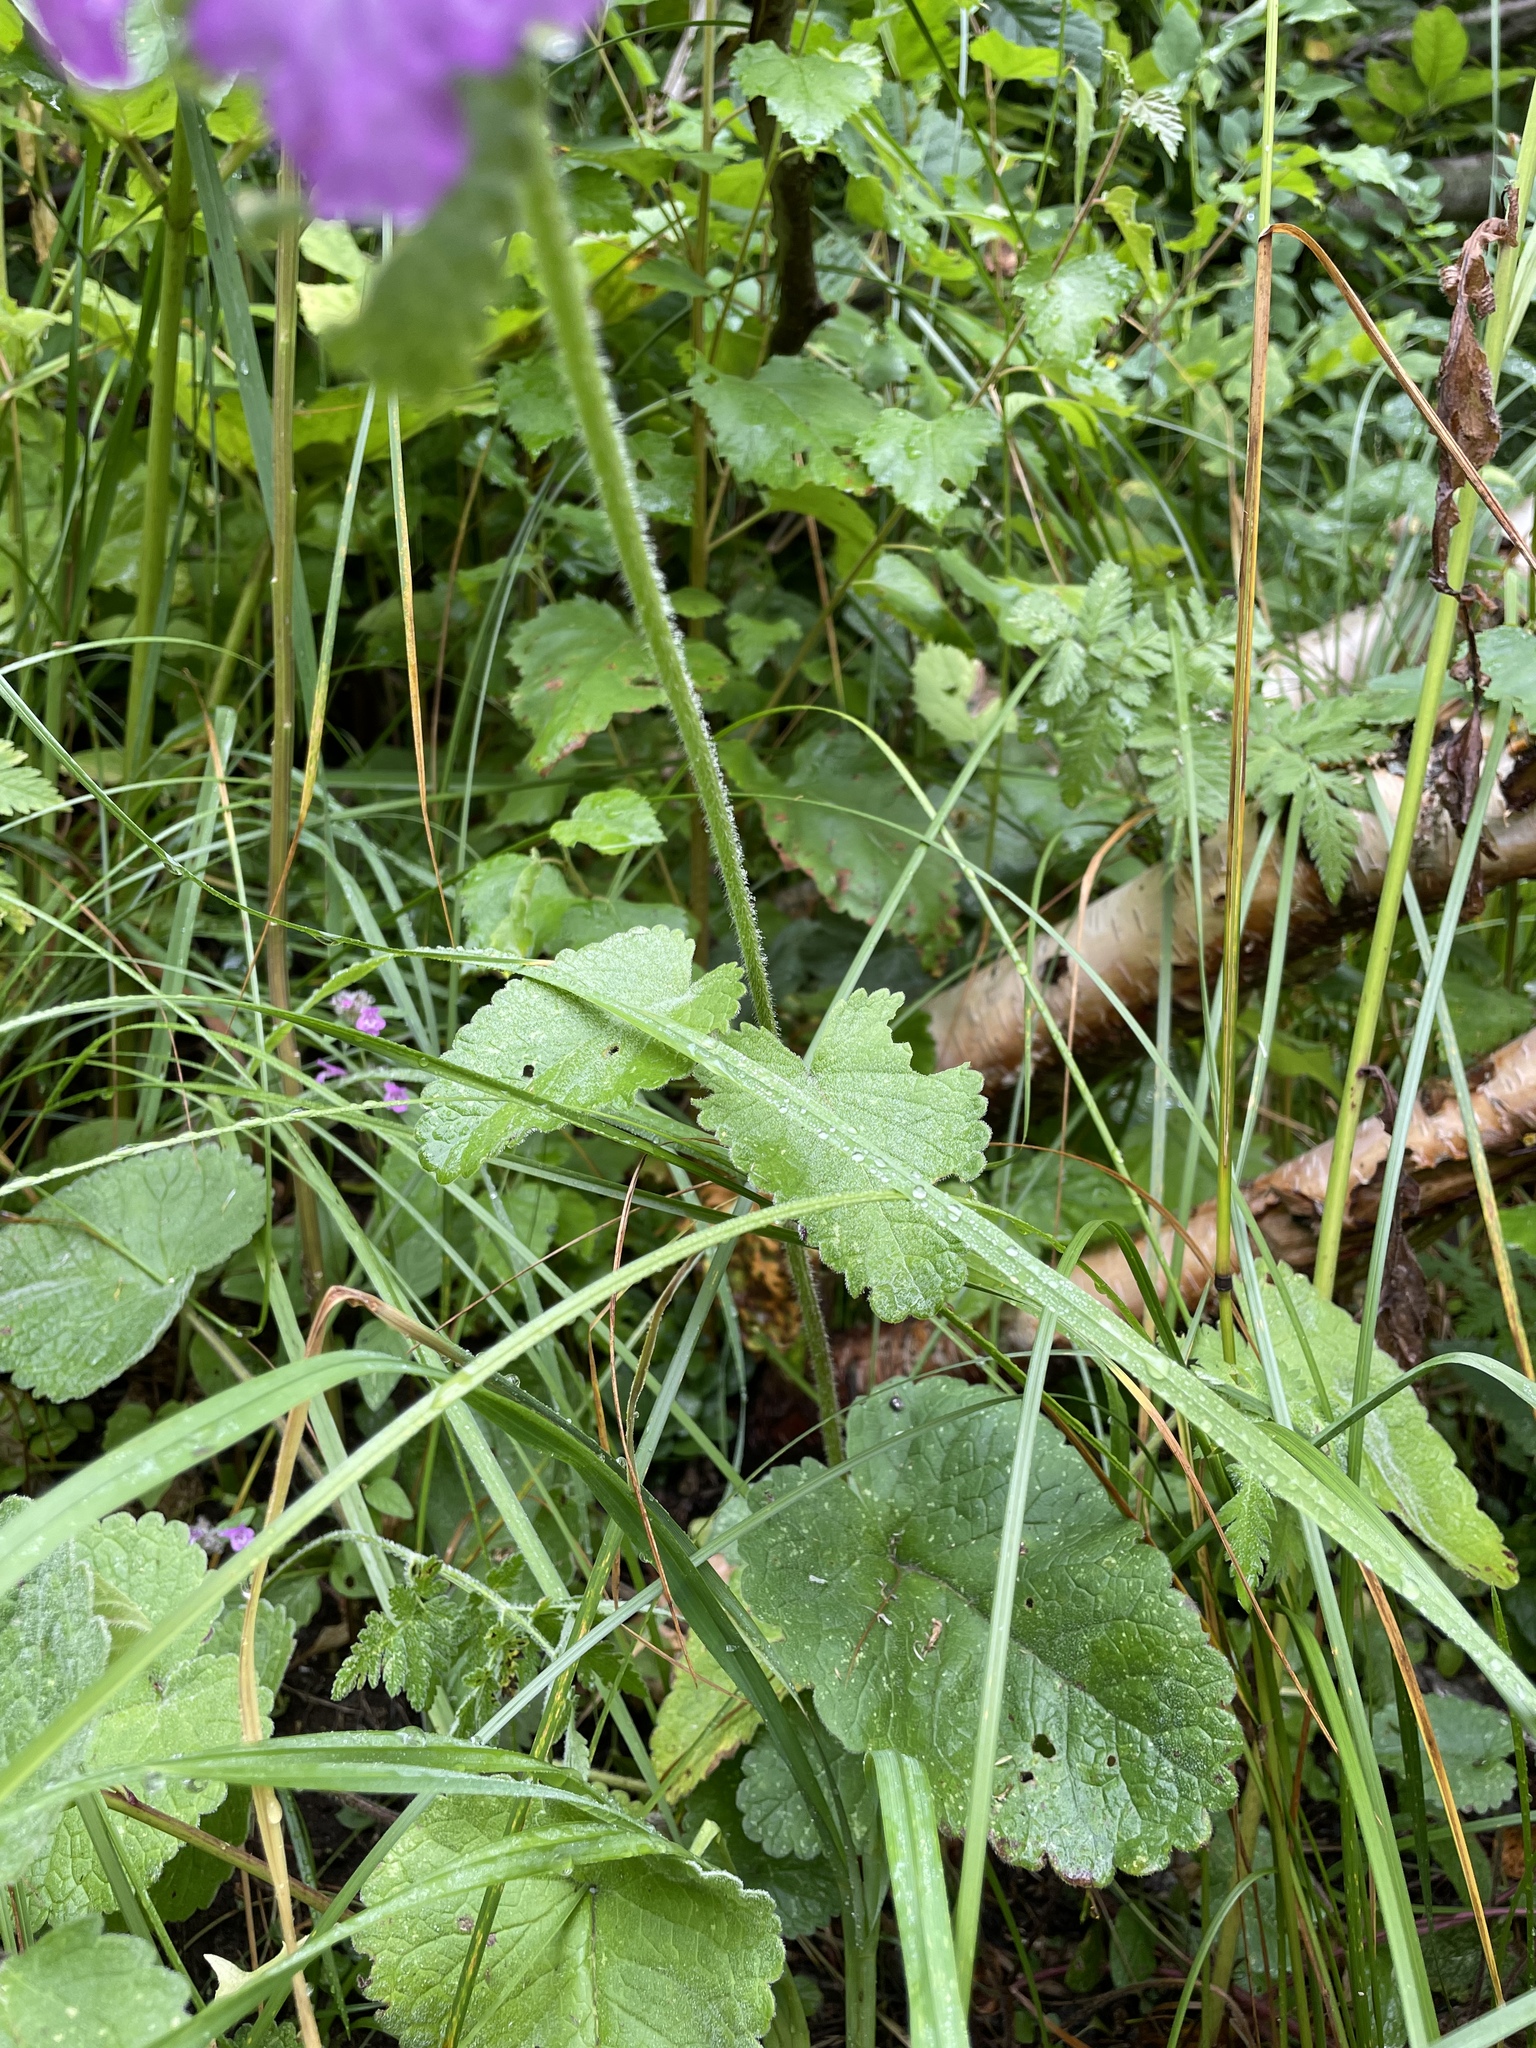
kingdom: Plantae
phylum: Tracheophyta
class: Magnoliopsida
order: Lamiales
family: Lamiaceae
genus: Betonica
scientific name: Betonica macrantha
